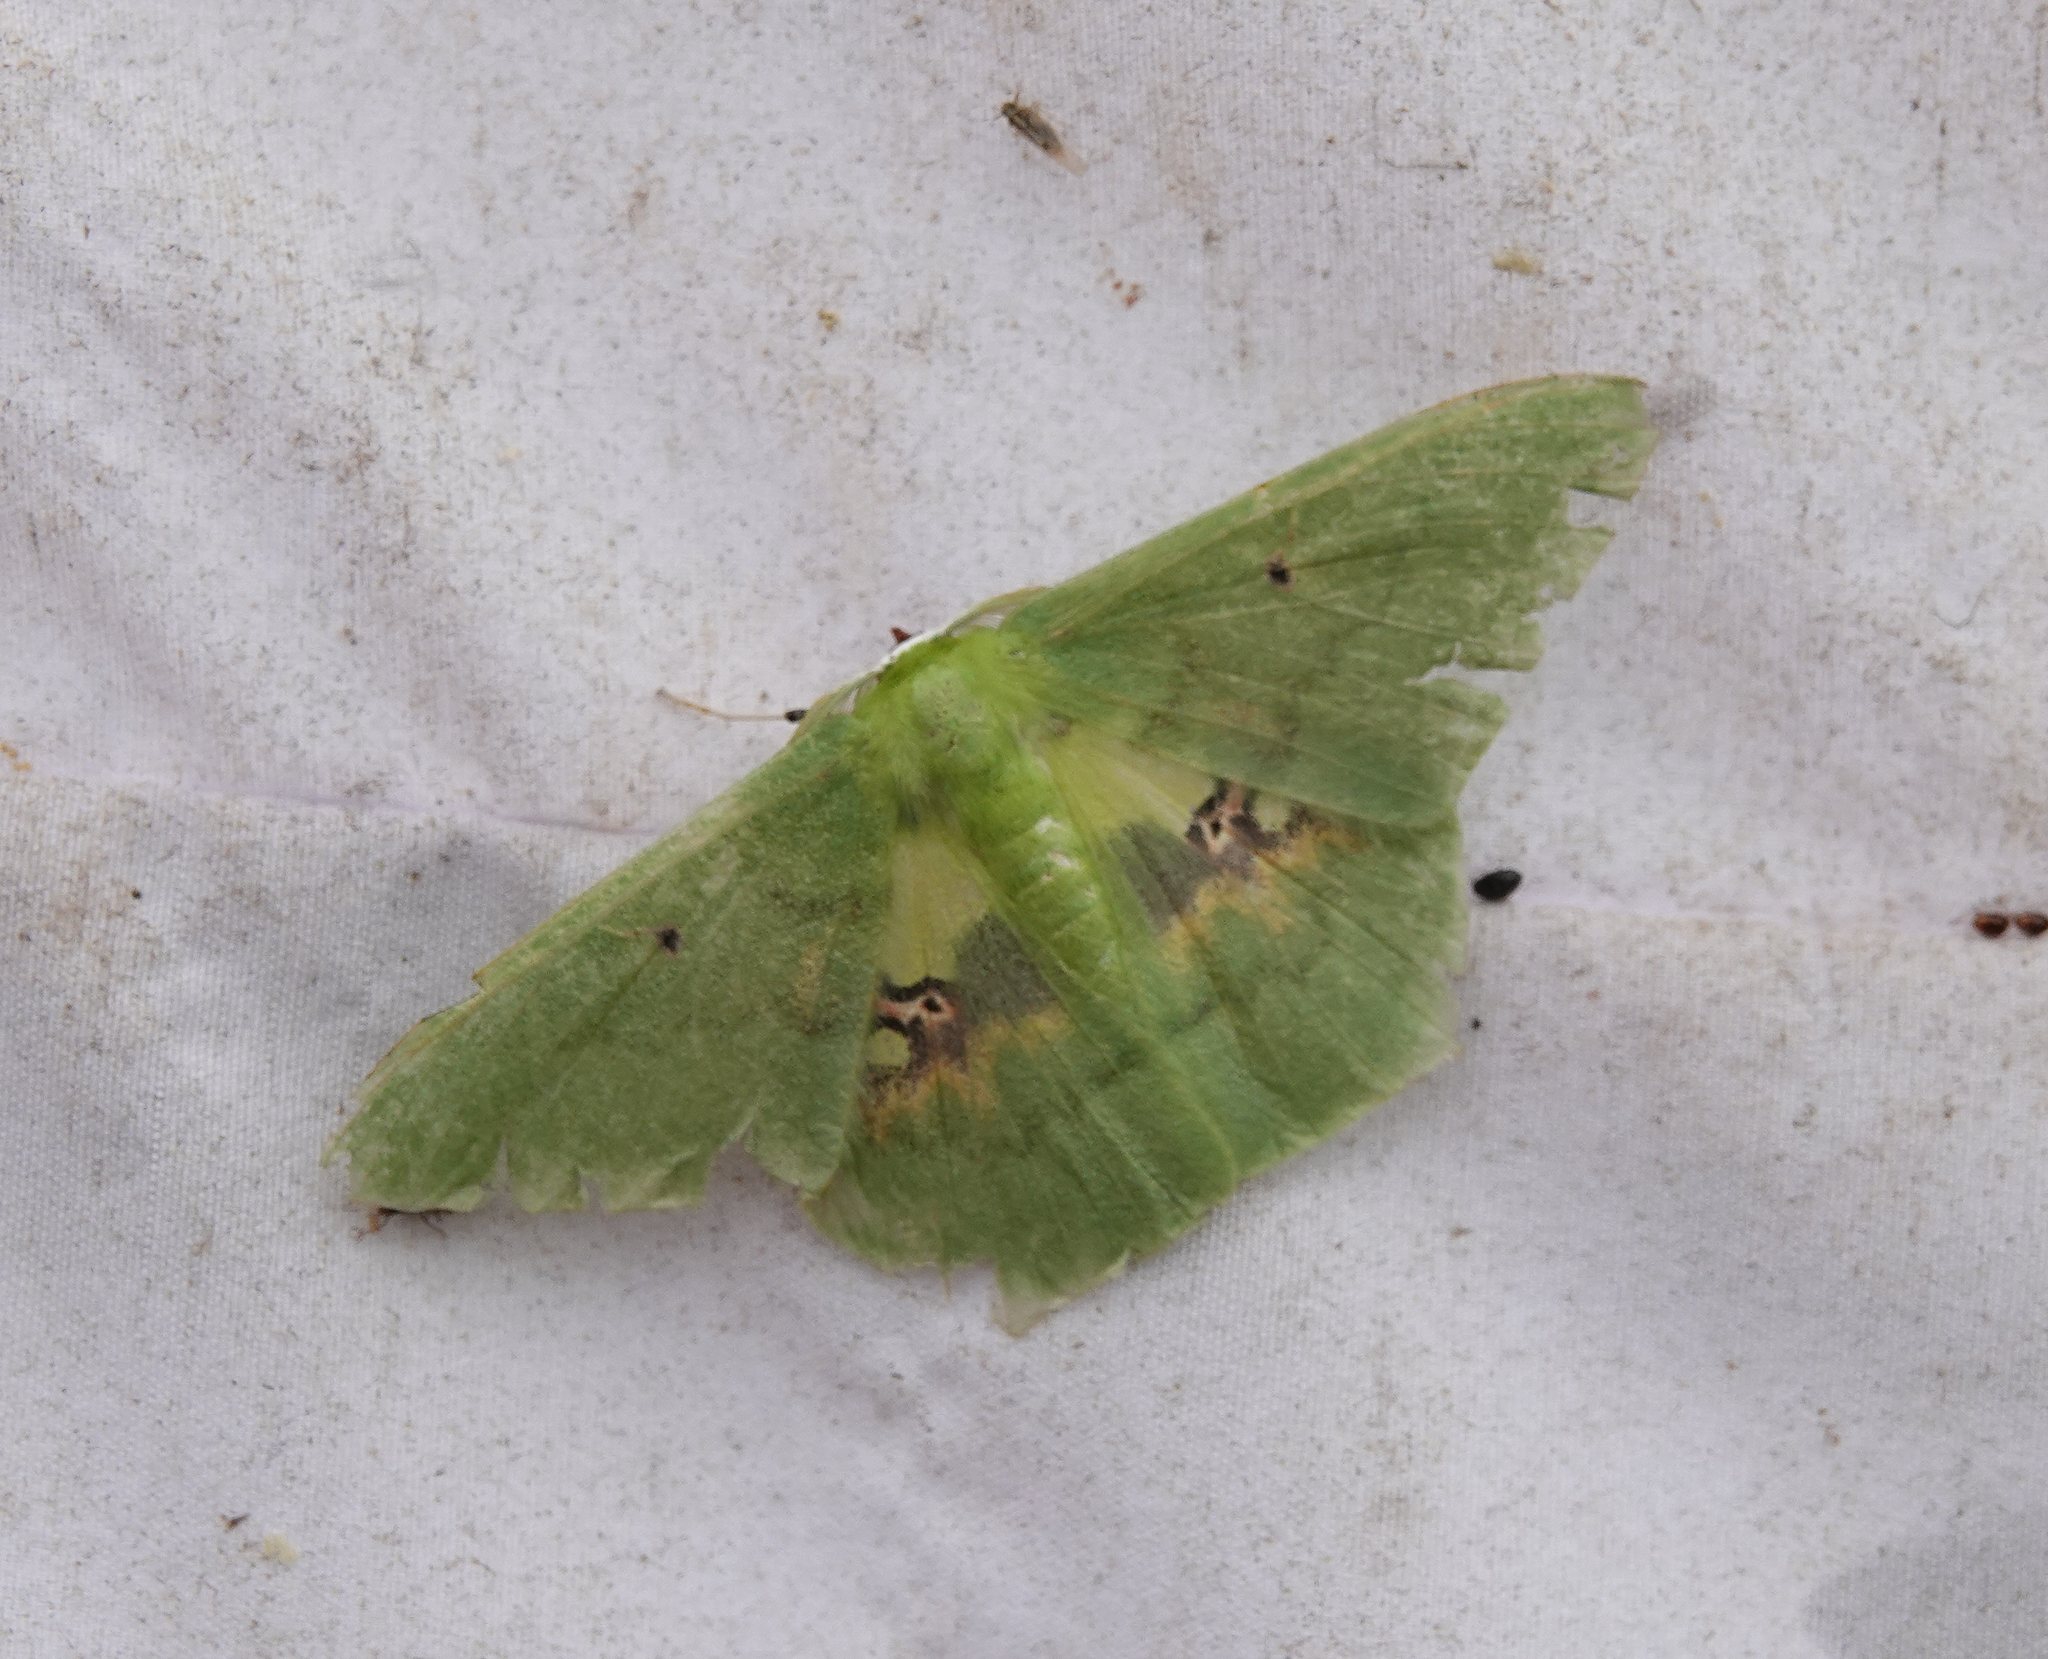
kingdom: Animalia
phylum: Arthropoda
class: Insecta
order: Lepidoptera
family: Geometridae
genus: Aporandria
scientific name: Aporandria specularia
